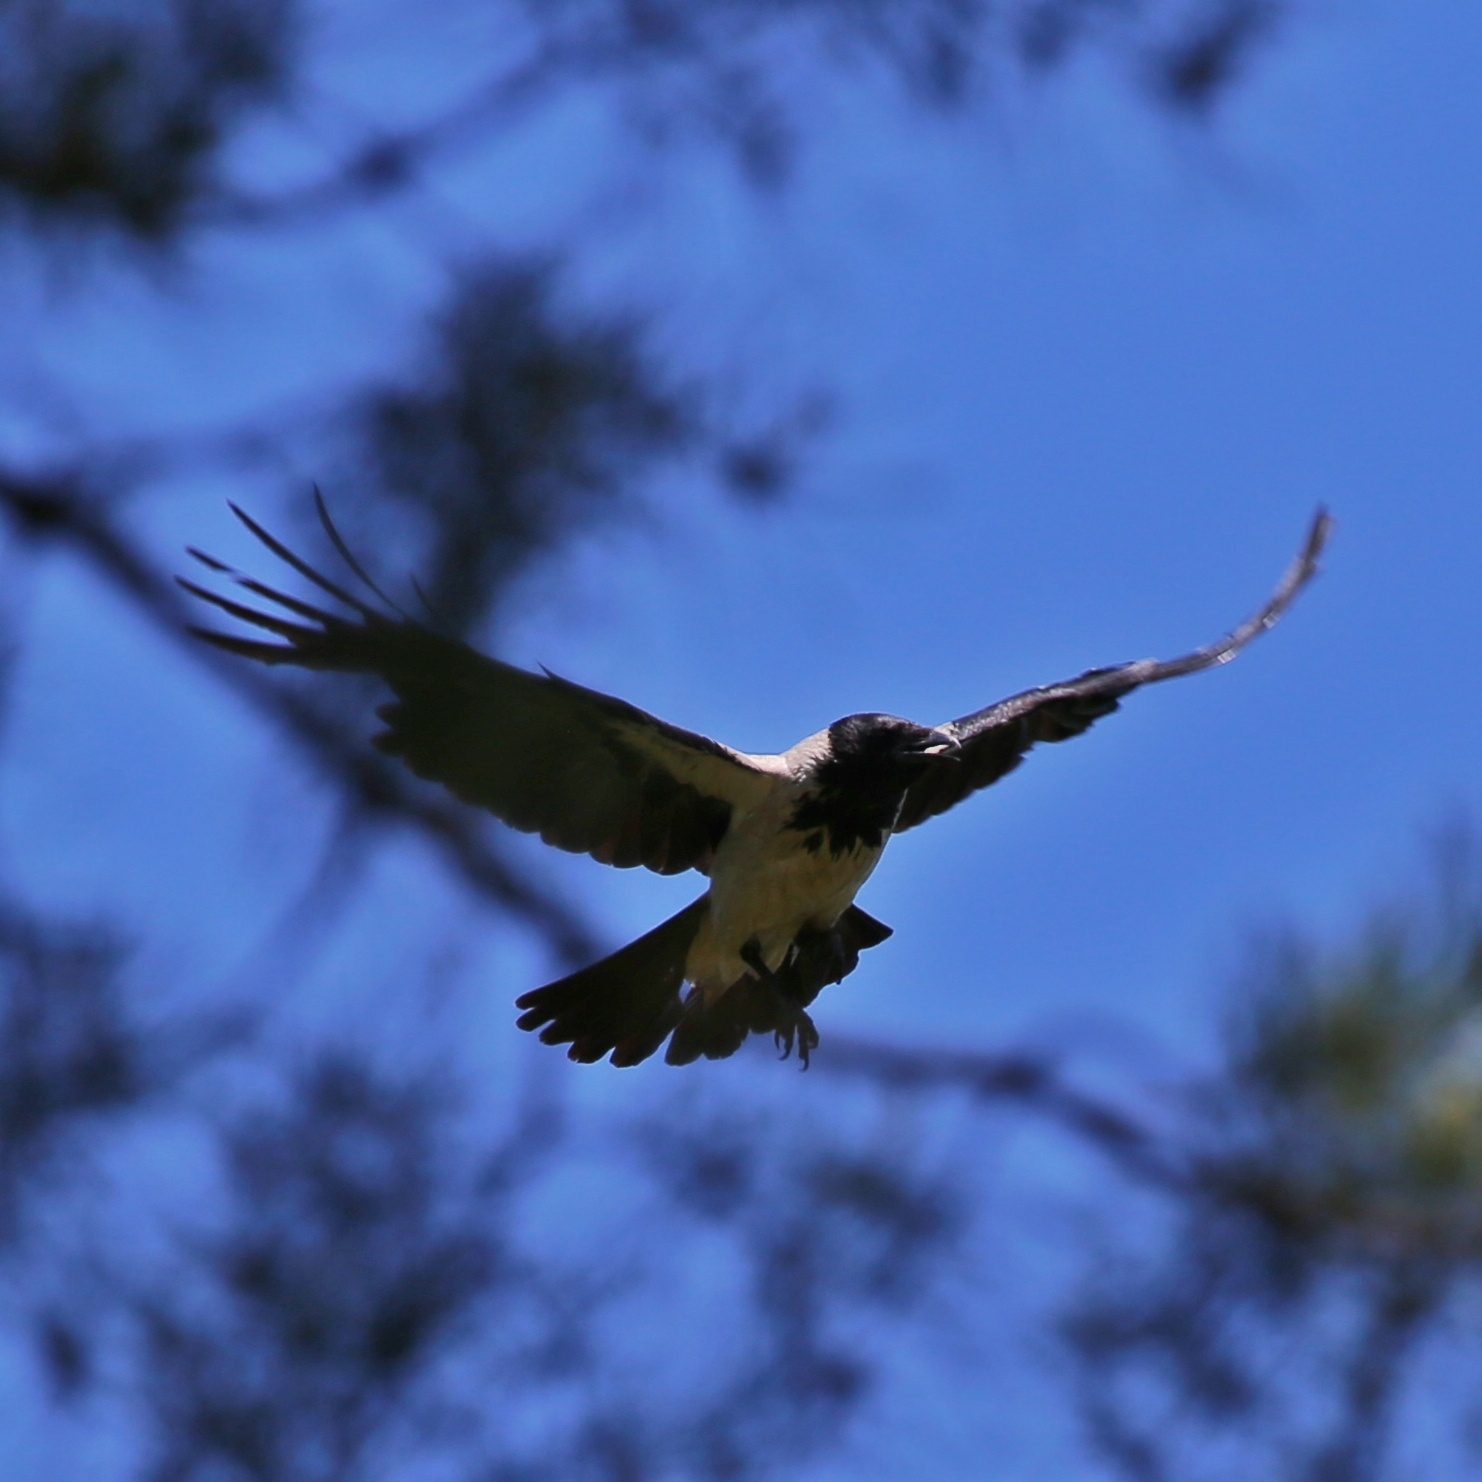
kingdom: Animalia
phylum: Chordata
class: Aves
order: Passeriformes
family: Corvidae
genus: Corvus
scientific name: Corvus cornix
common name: Hooded crow
